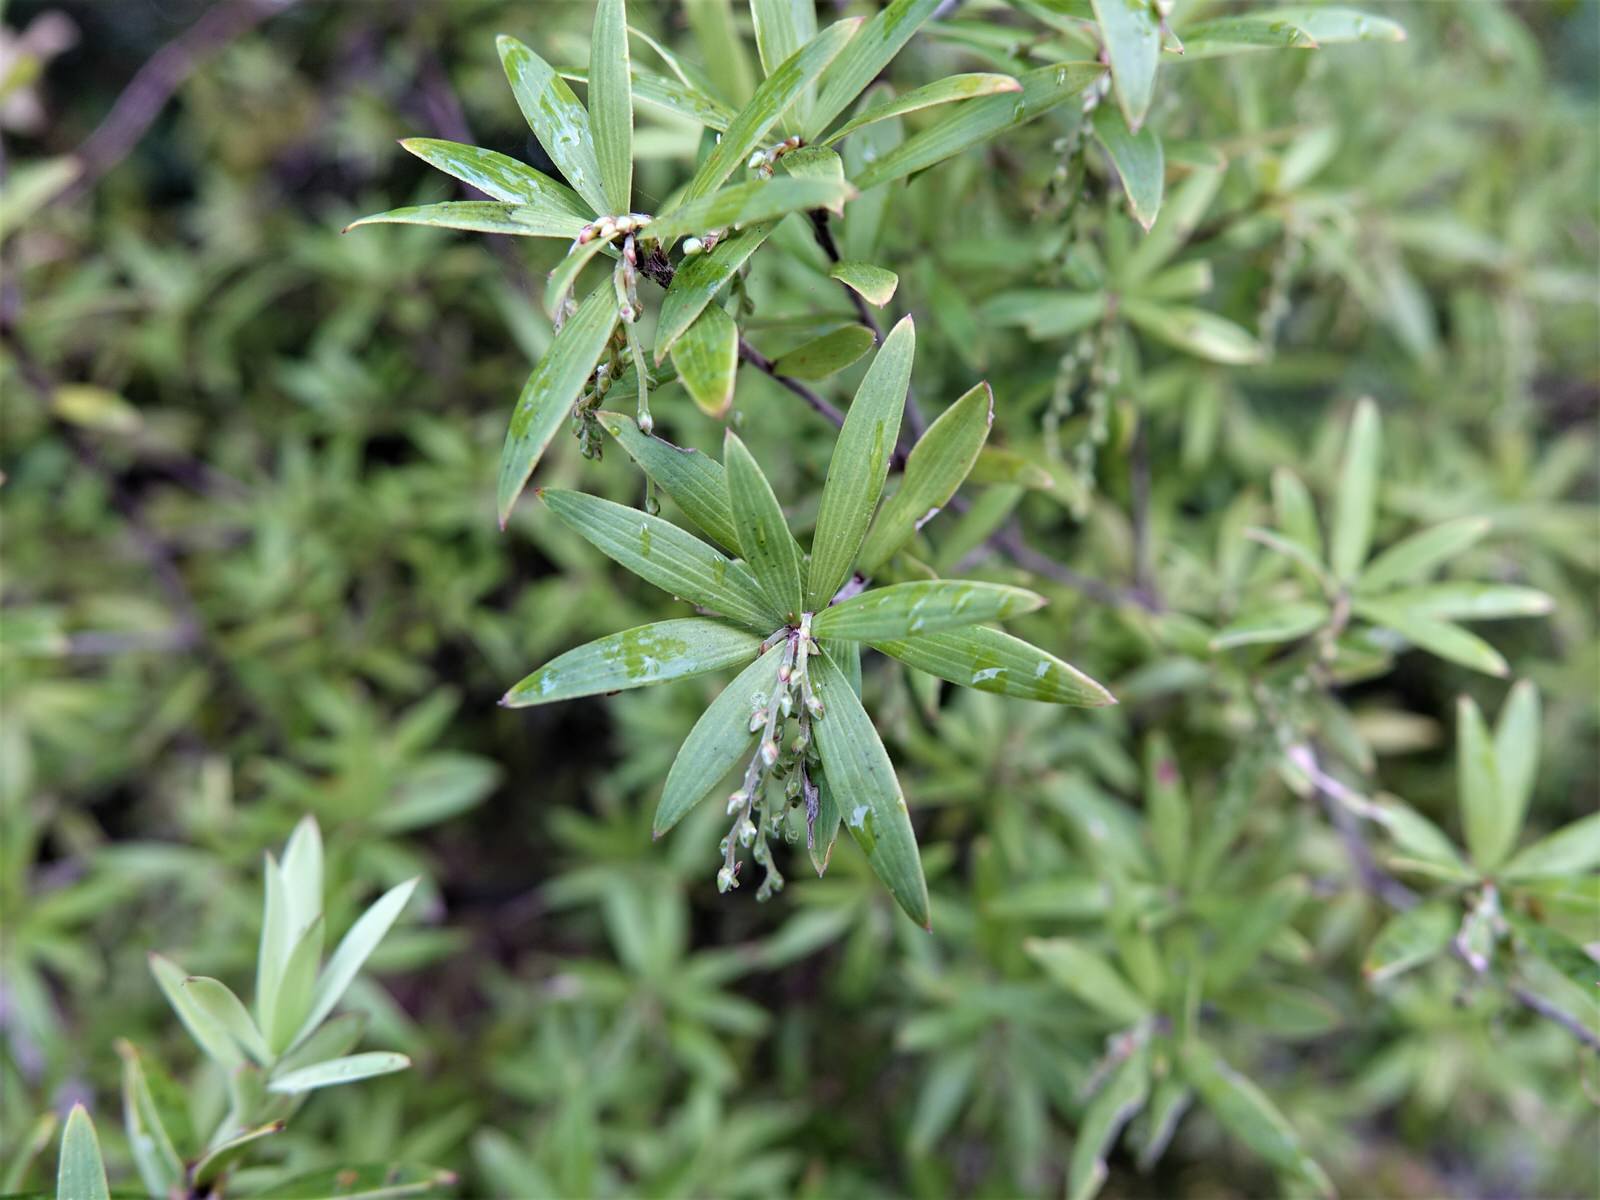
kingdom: Plantae
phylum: Tracheophyta
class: Magnoliopsida
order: Ericales
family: Ericaceae
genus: Leucopogon
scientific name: Leucopogon fasciculatus
